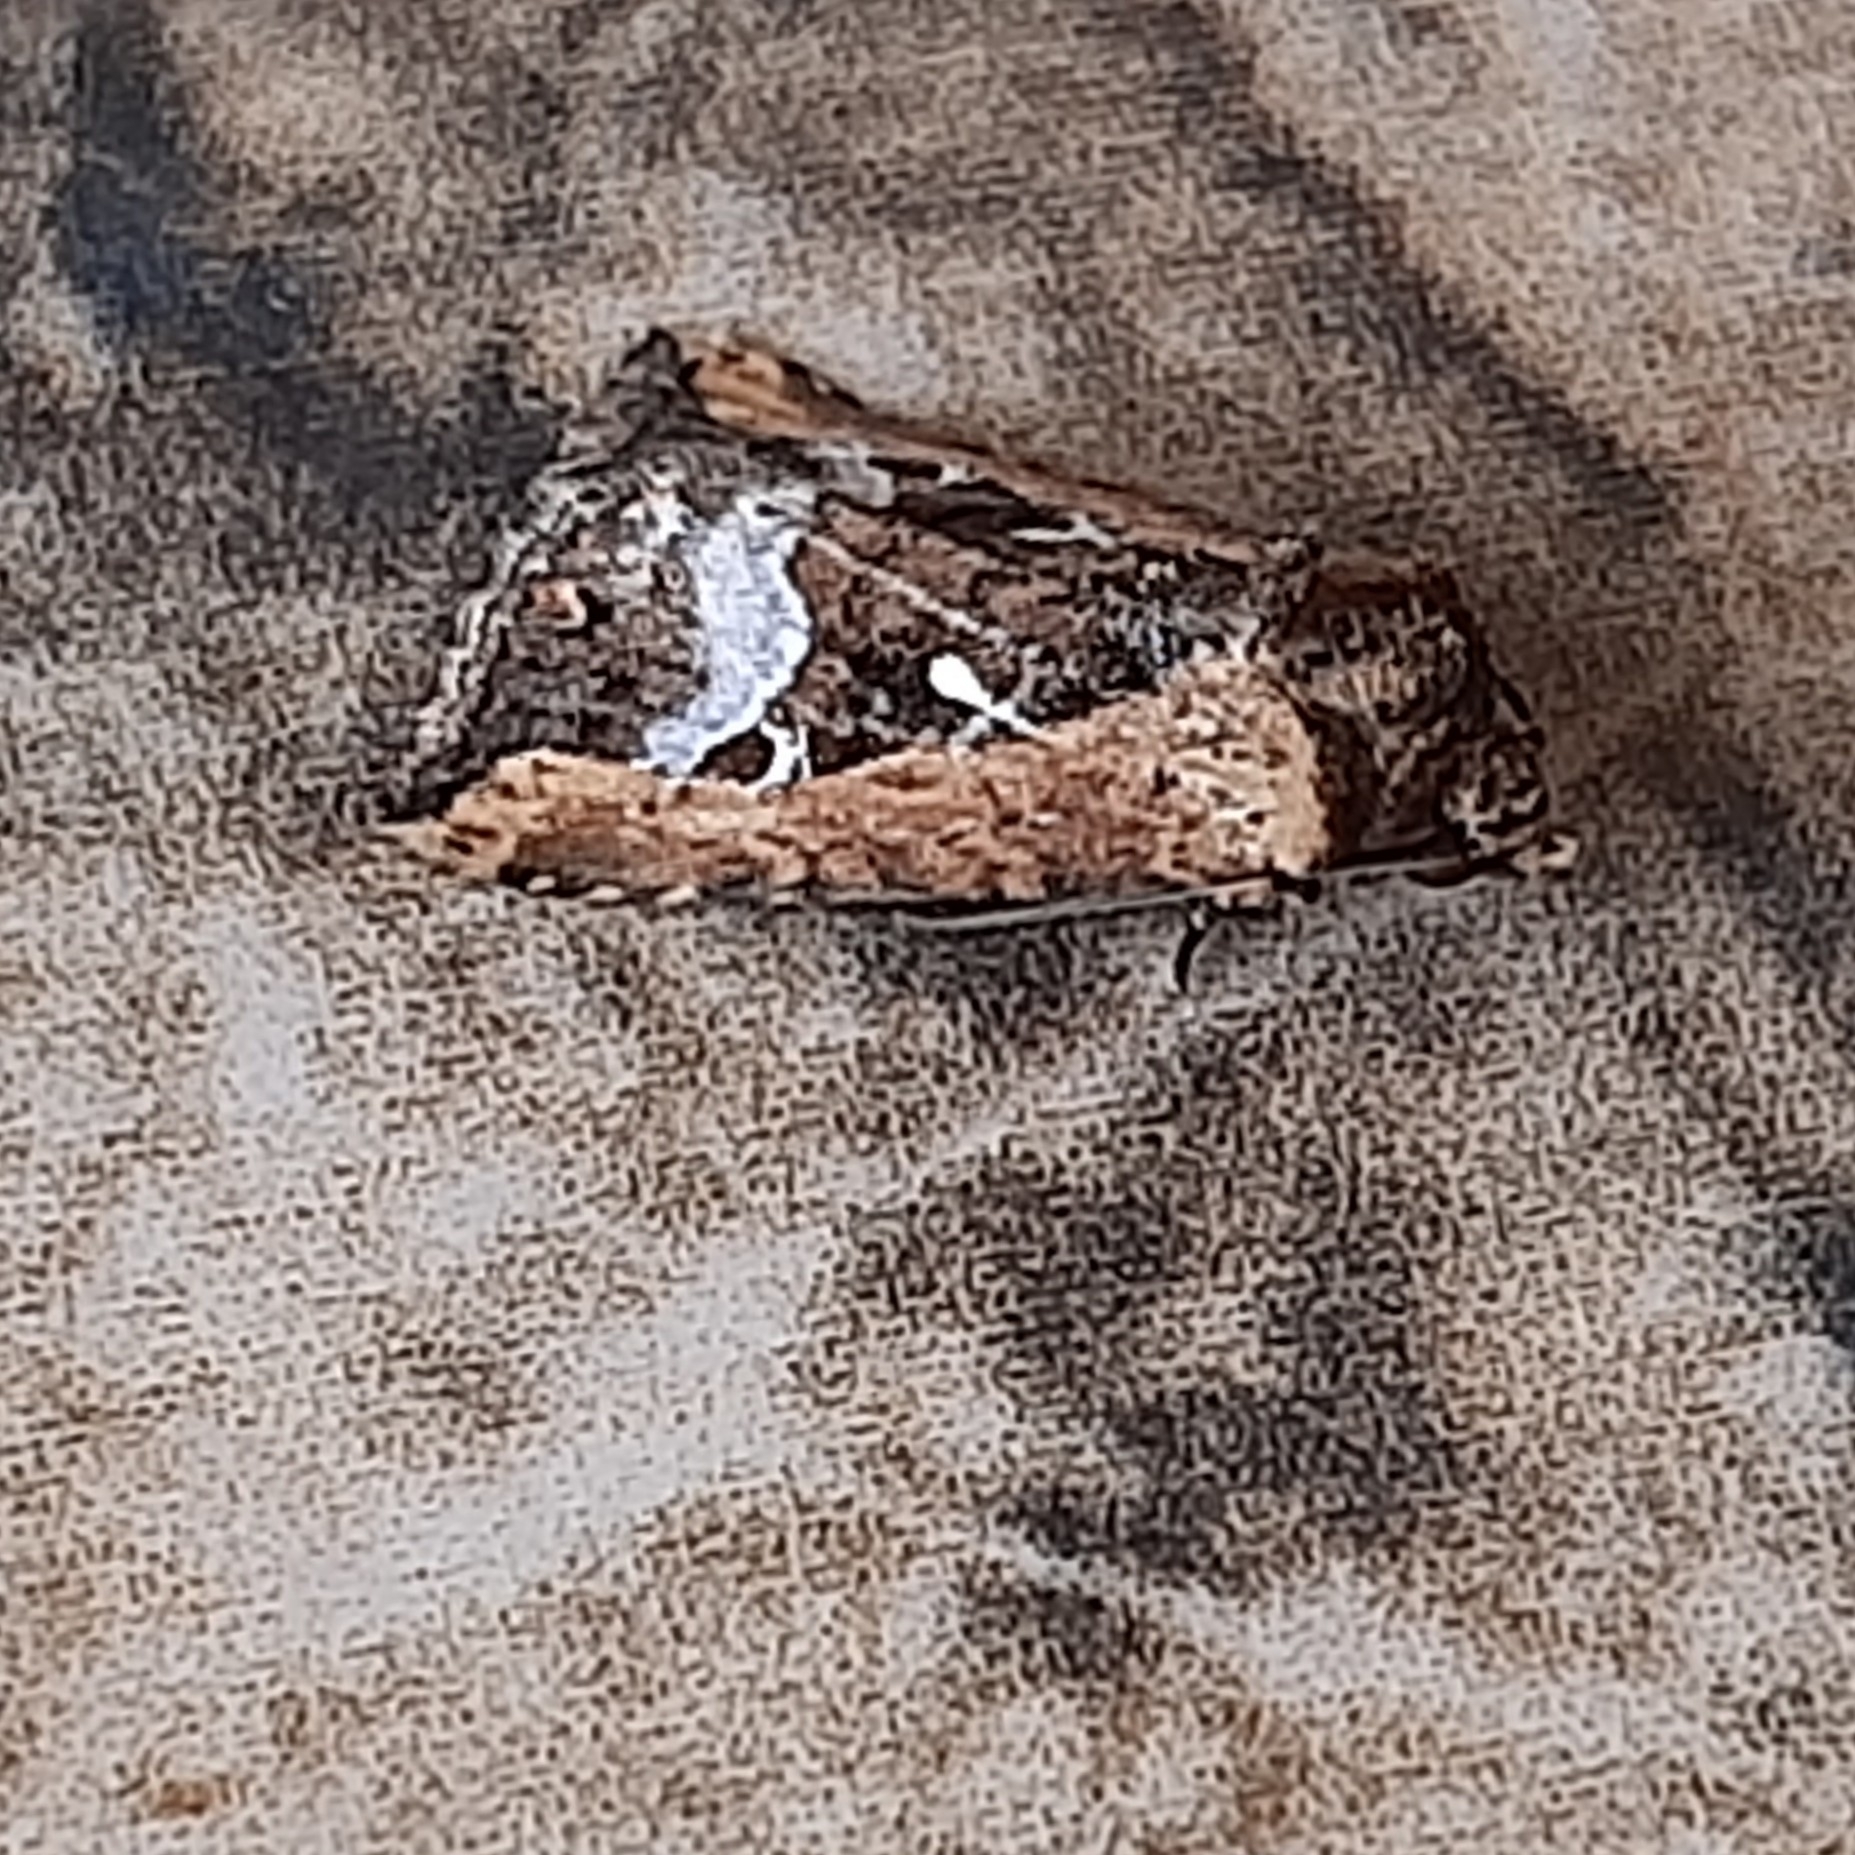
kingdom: Animalia
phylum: Arthropoda
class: Insecta
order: Lepidoptera
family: Noctuidae
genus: Elaphria
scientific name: Elaphria subobliqua
